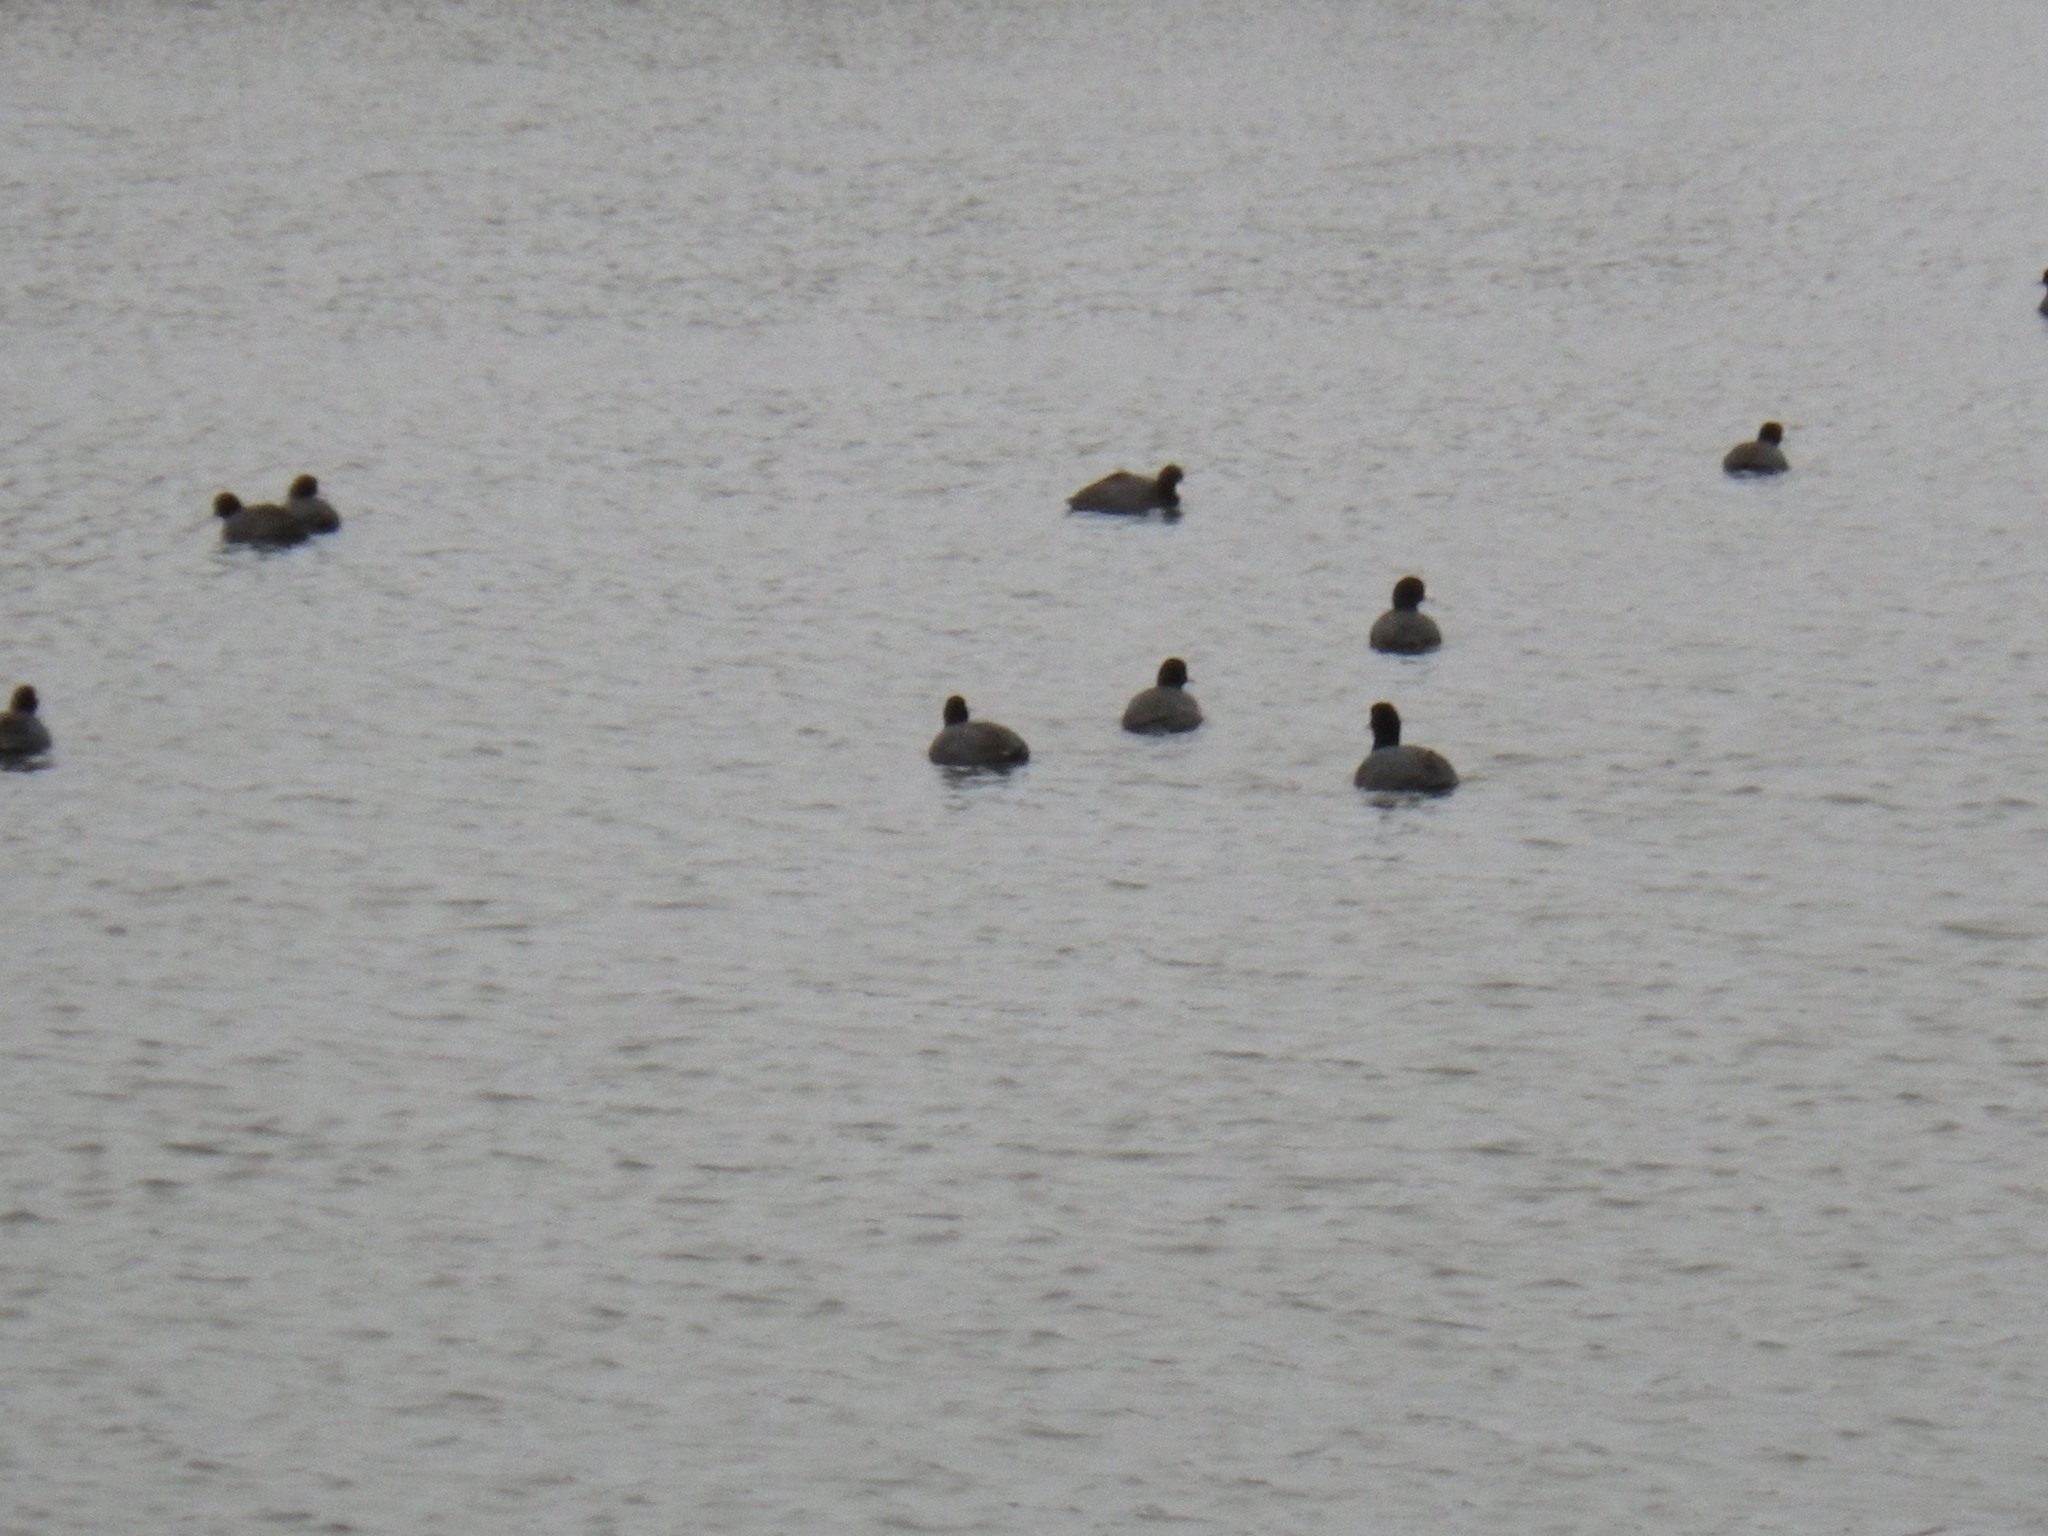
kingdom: Animalia
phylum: Chordata
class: Aves
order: Gruiformes
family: Rallidae
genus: Fulica
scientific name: Fulica americana
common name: American coot
